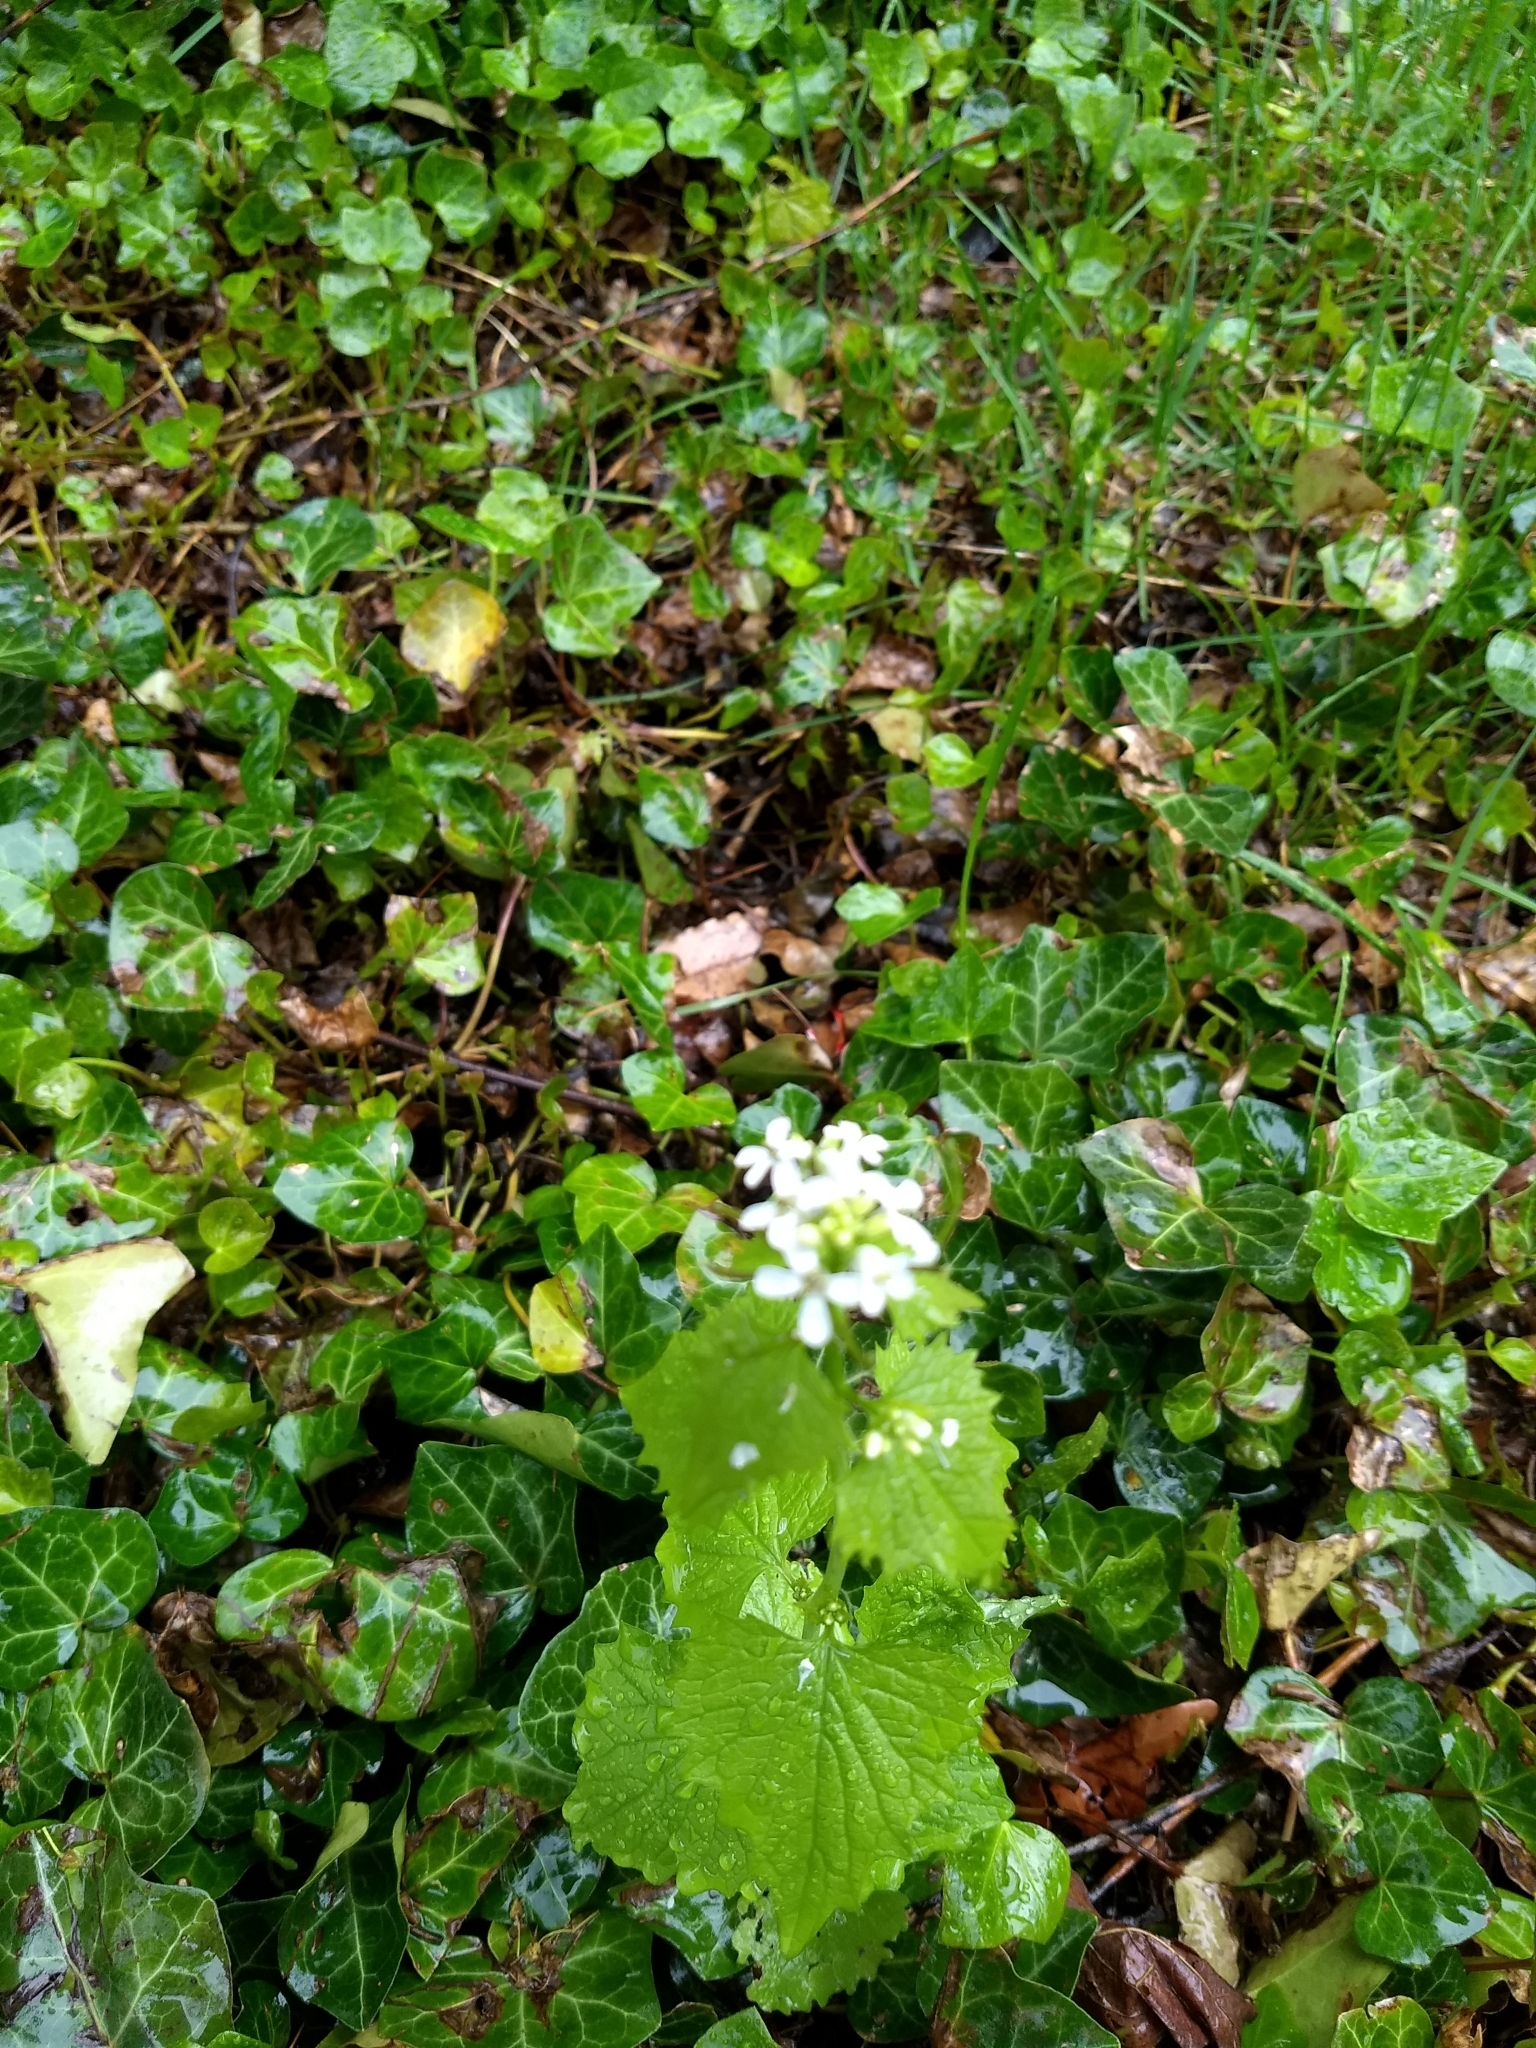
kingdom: Plantae
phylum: Tracheophyta
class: Magnoliopsida
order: Brassicales
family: Brassicaceae
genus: Alliaria
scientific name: Alliaria petiolata
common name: Garlic mustard
